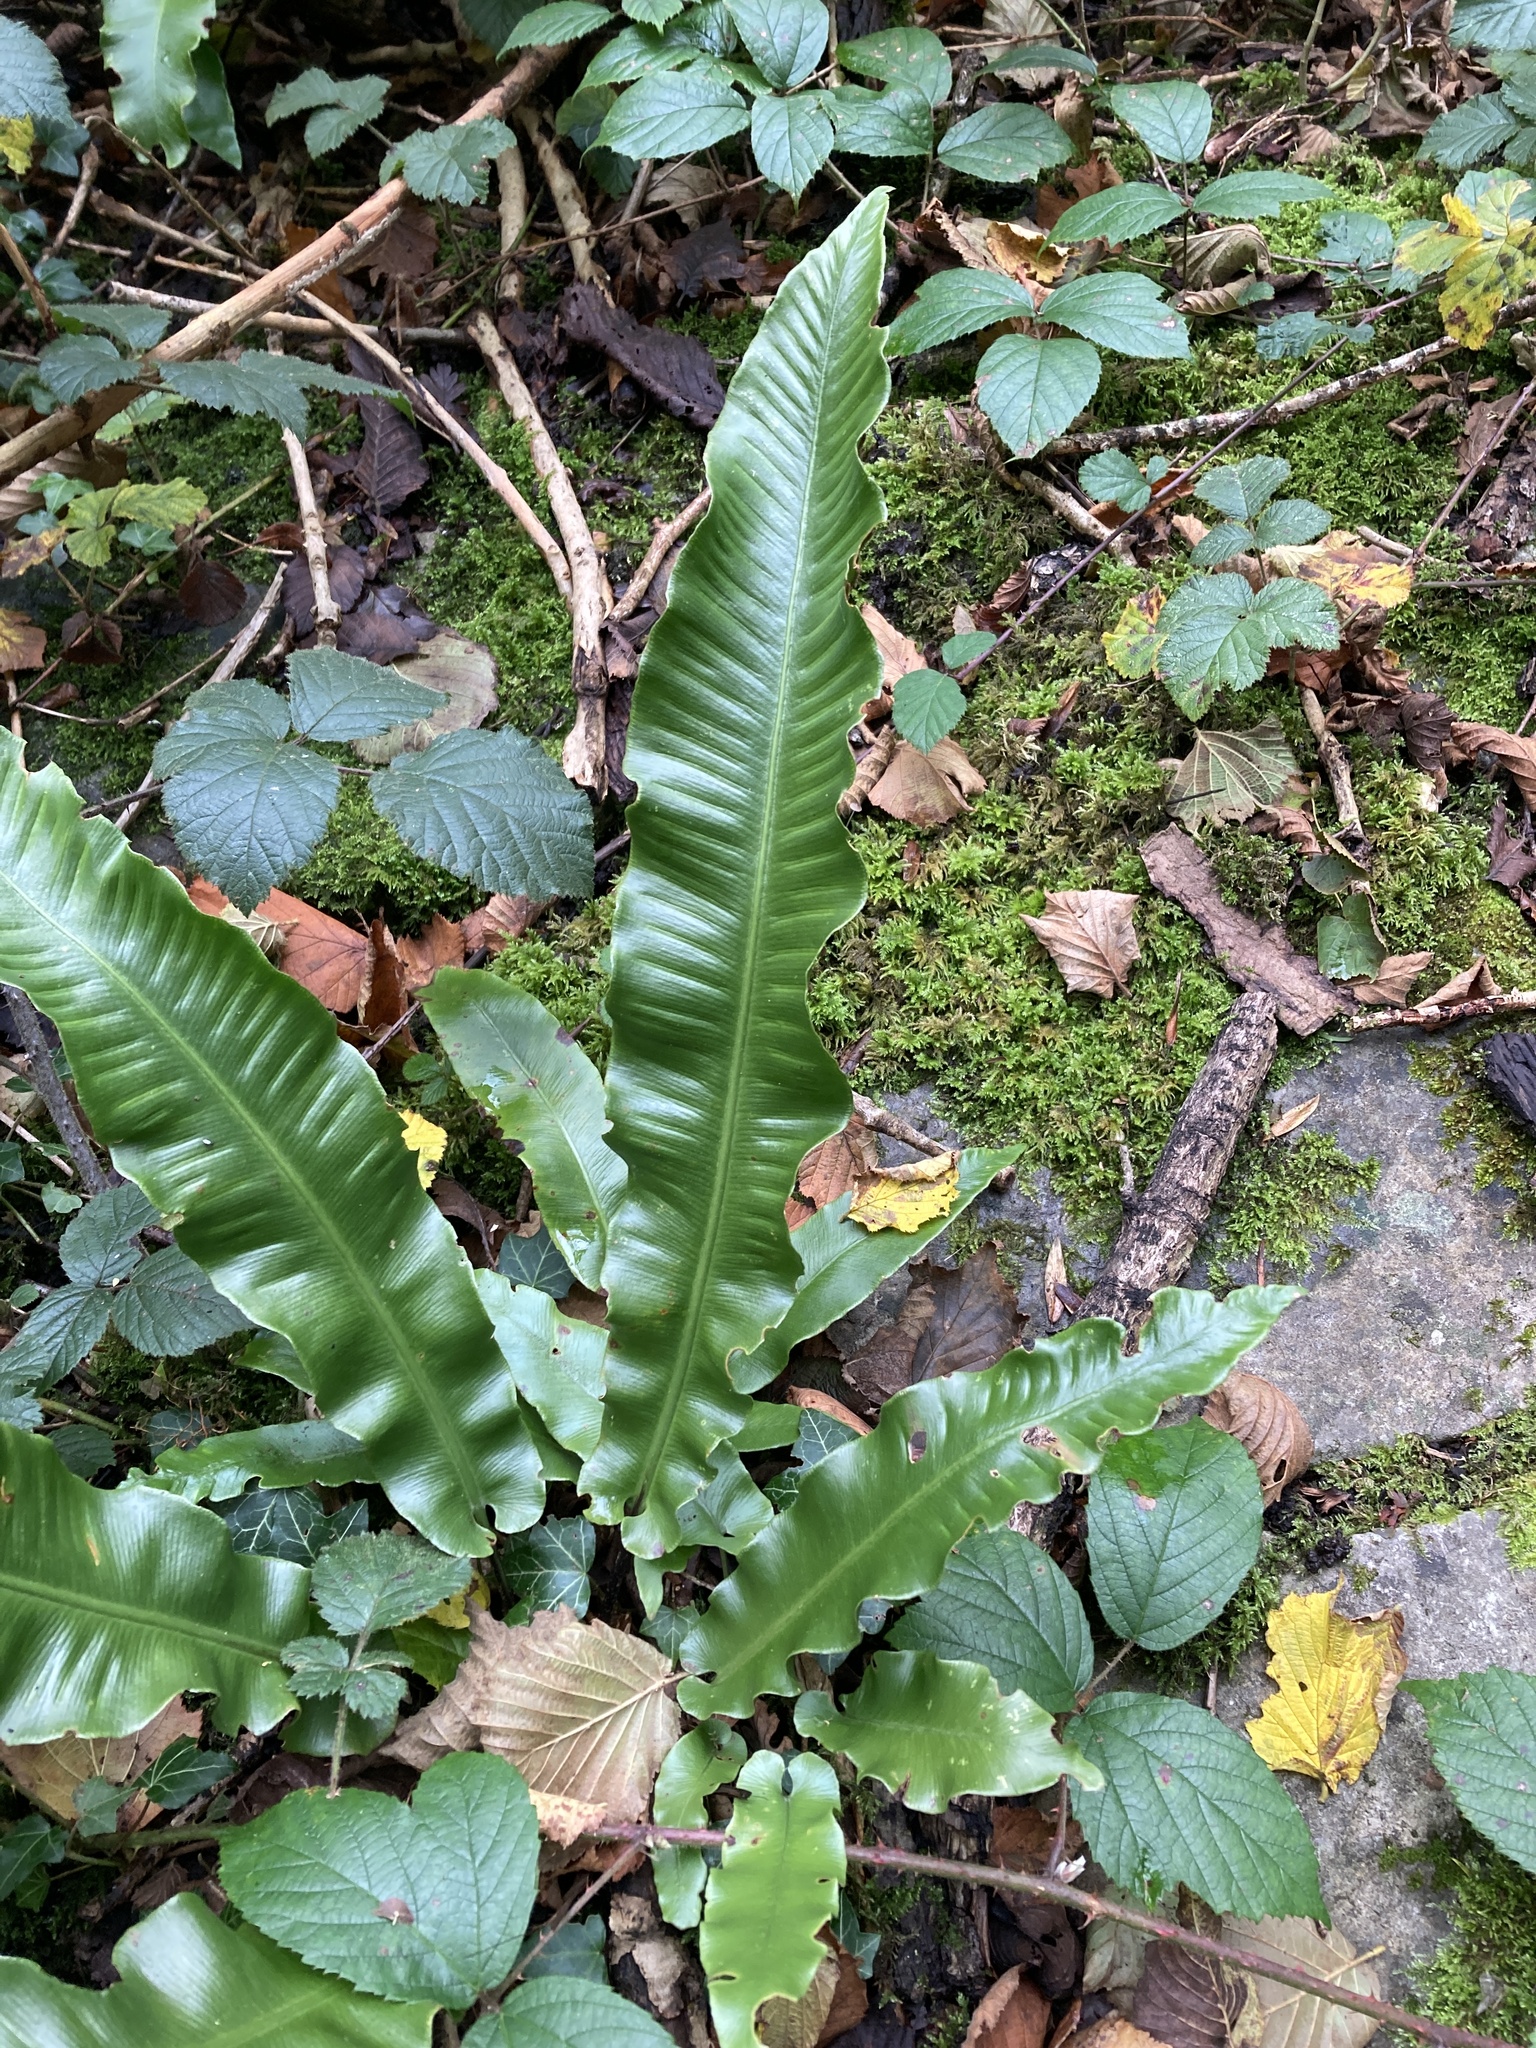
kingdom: Plantae
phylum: Tracheophyta
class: Polypodiopsida
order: Polypodiales
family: Aspleniaceae
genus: Asplenium
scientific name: Asplenium scolopendrium
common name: Hart's-tongue fern
